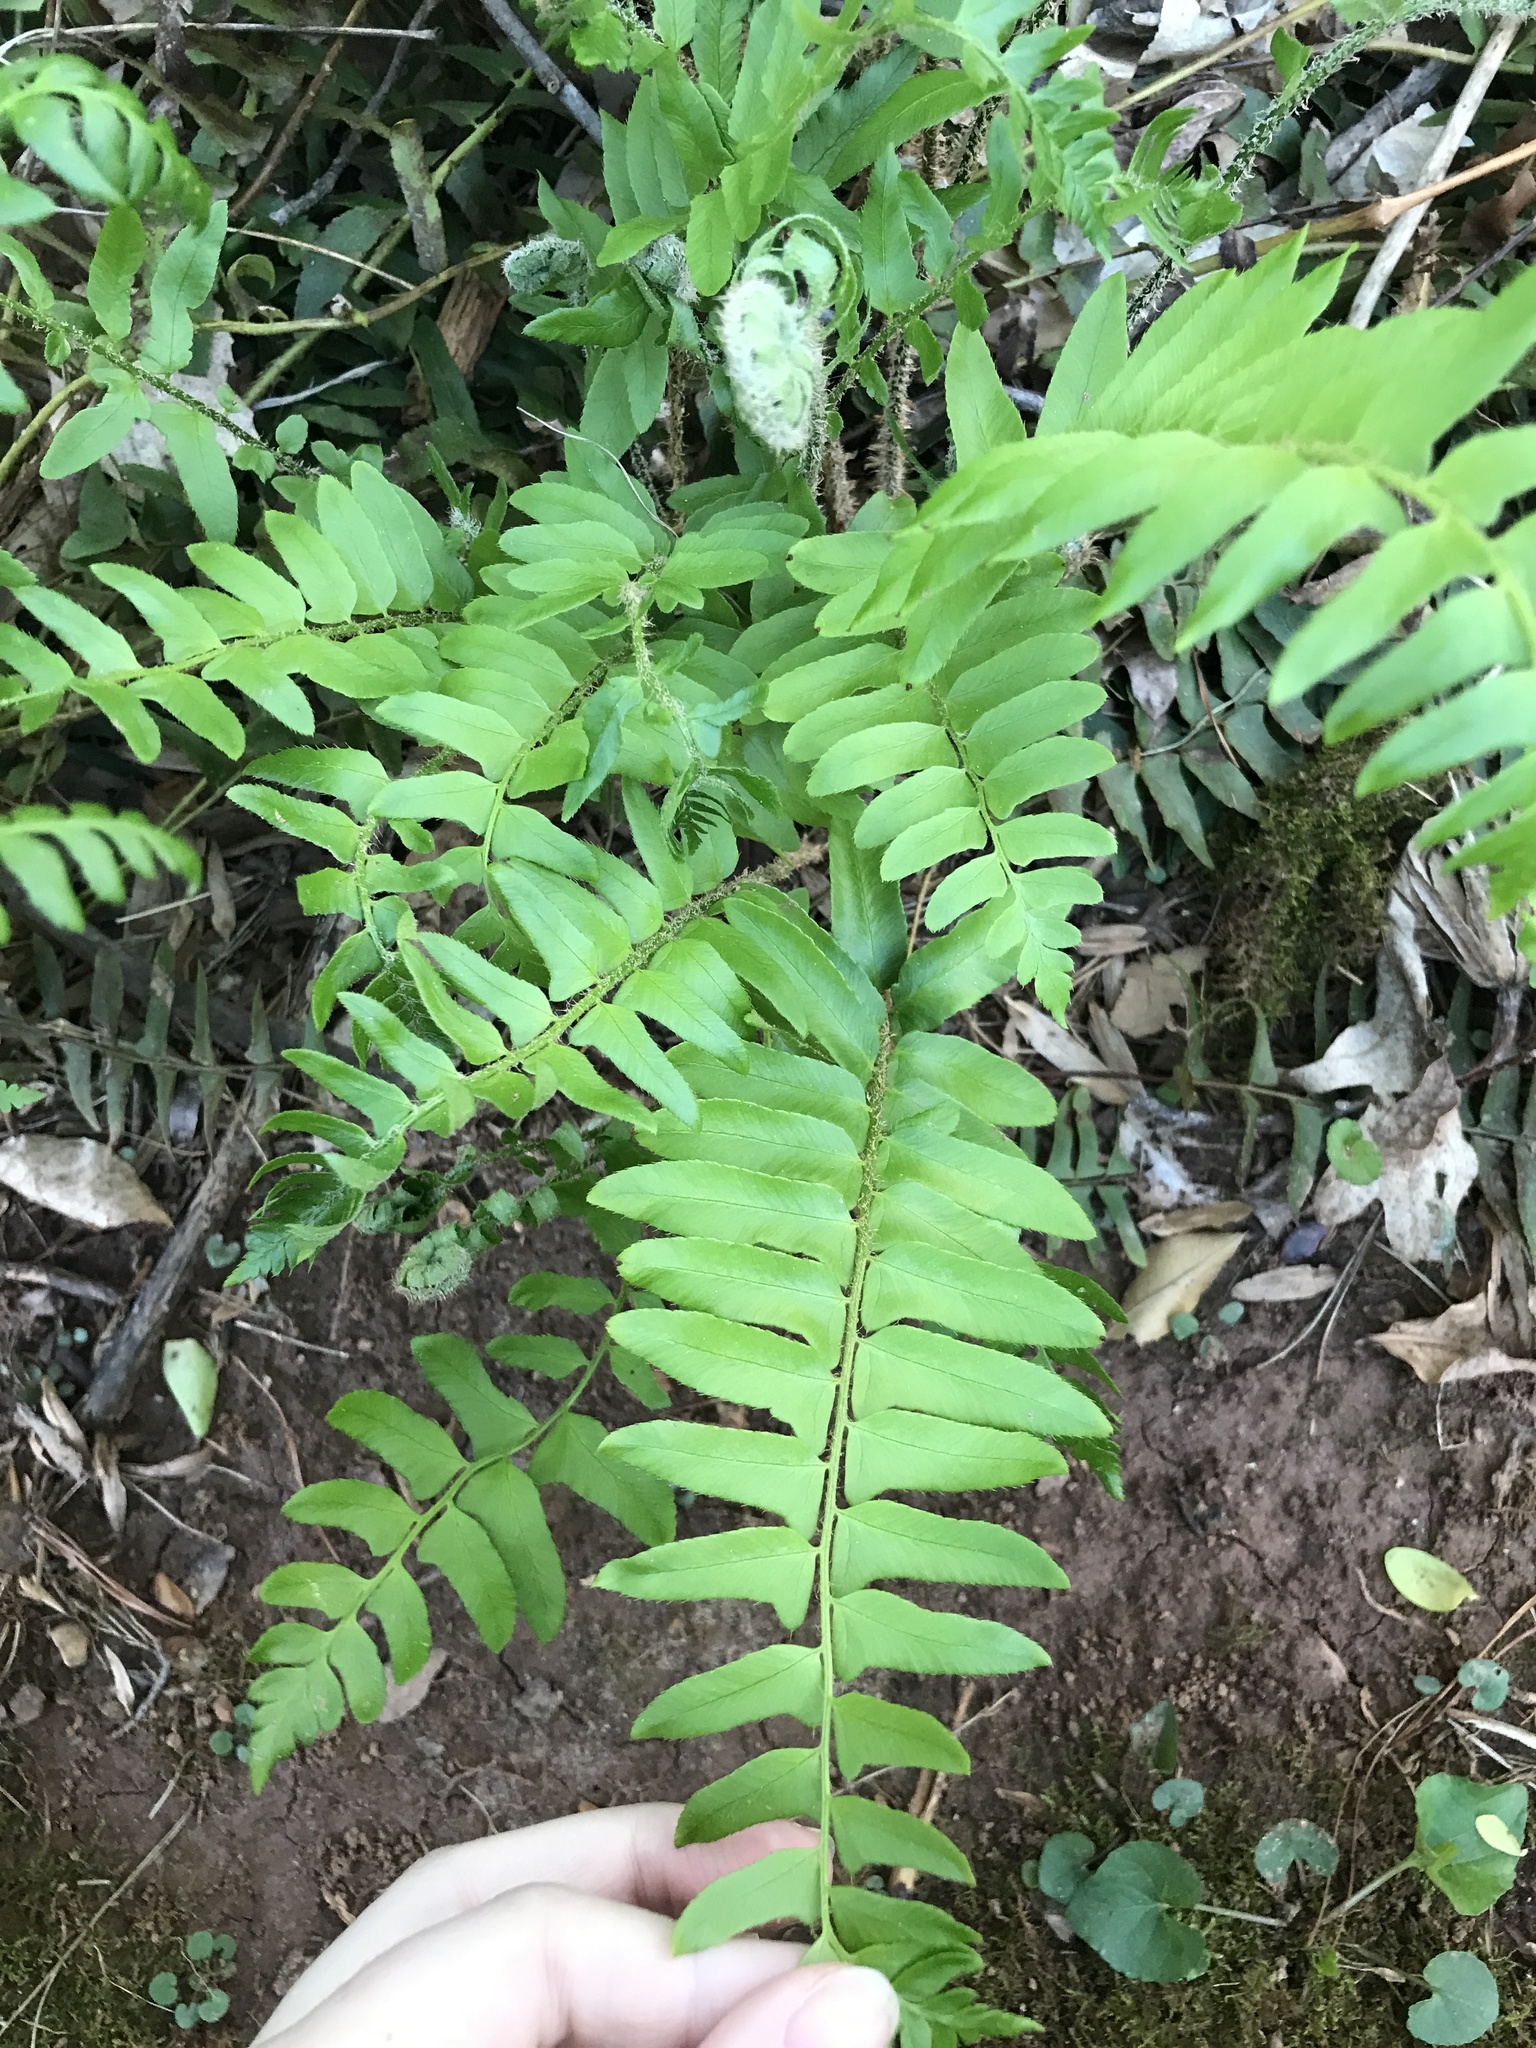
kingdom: Plantae
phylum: Tracheophyta
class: Polypodiopsida
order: Polypodiales
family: Dryopteridaceae
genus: Polystichum
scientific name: Polystichum acrostichoides
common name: Christmas fern
